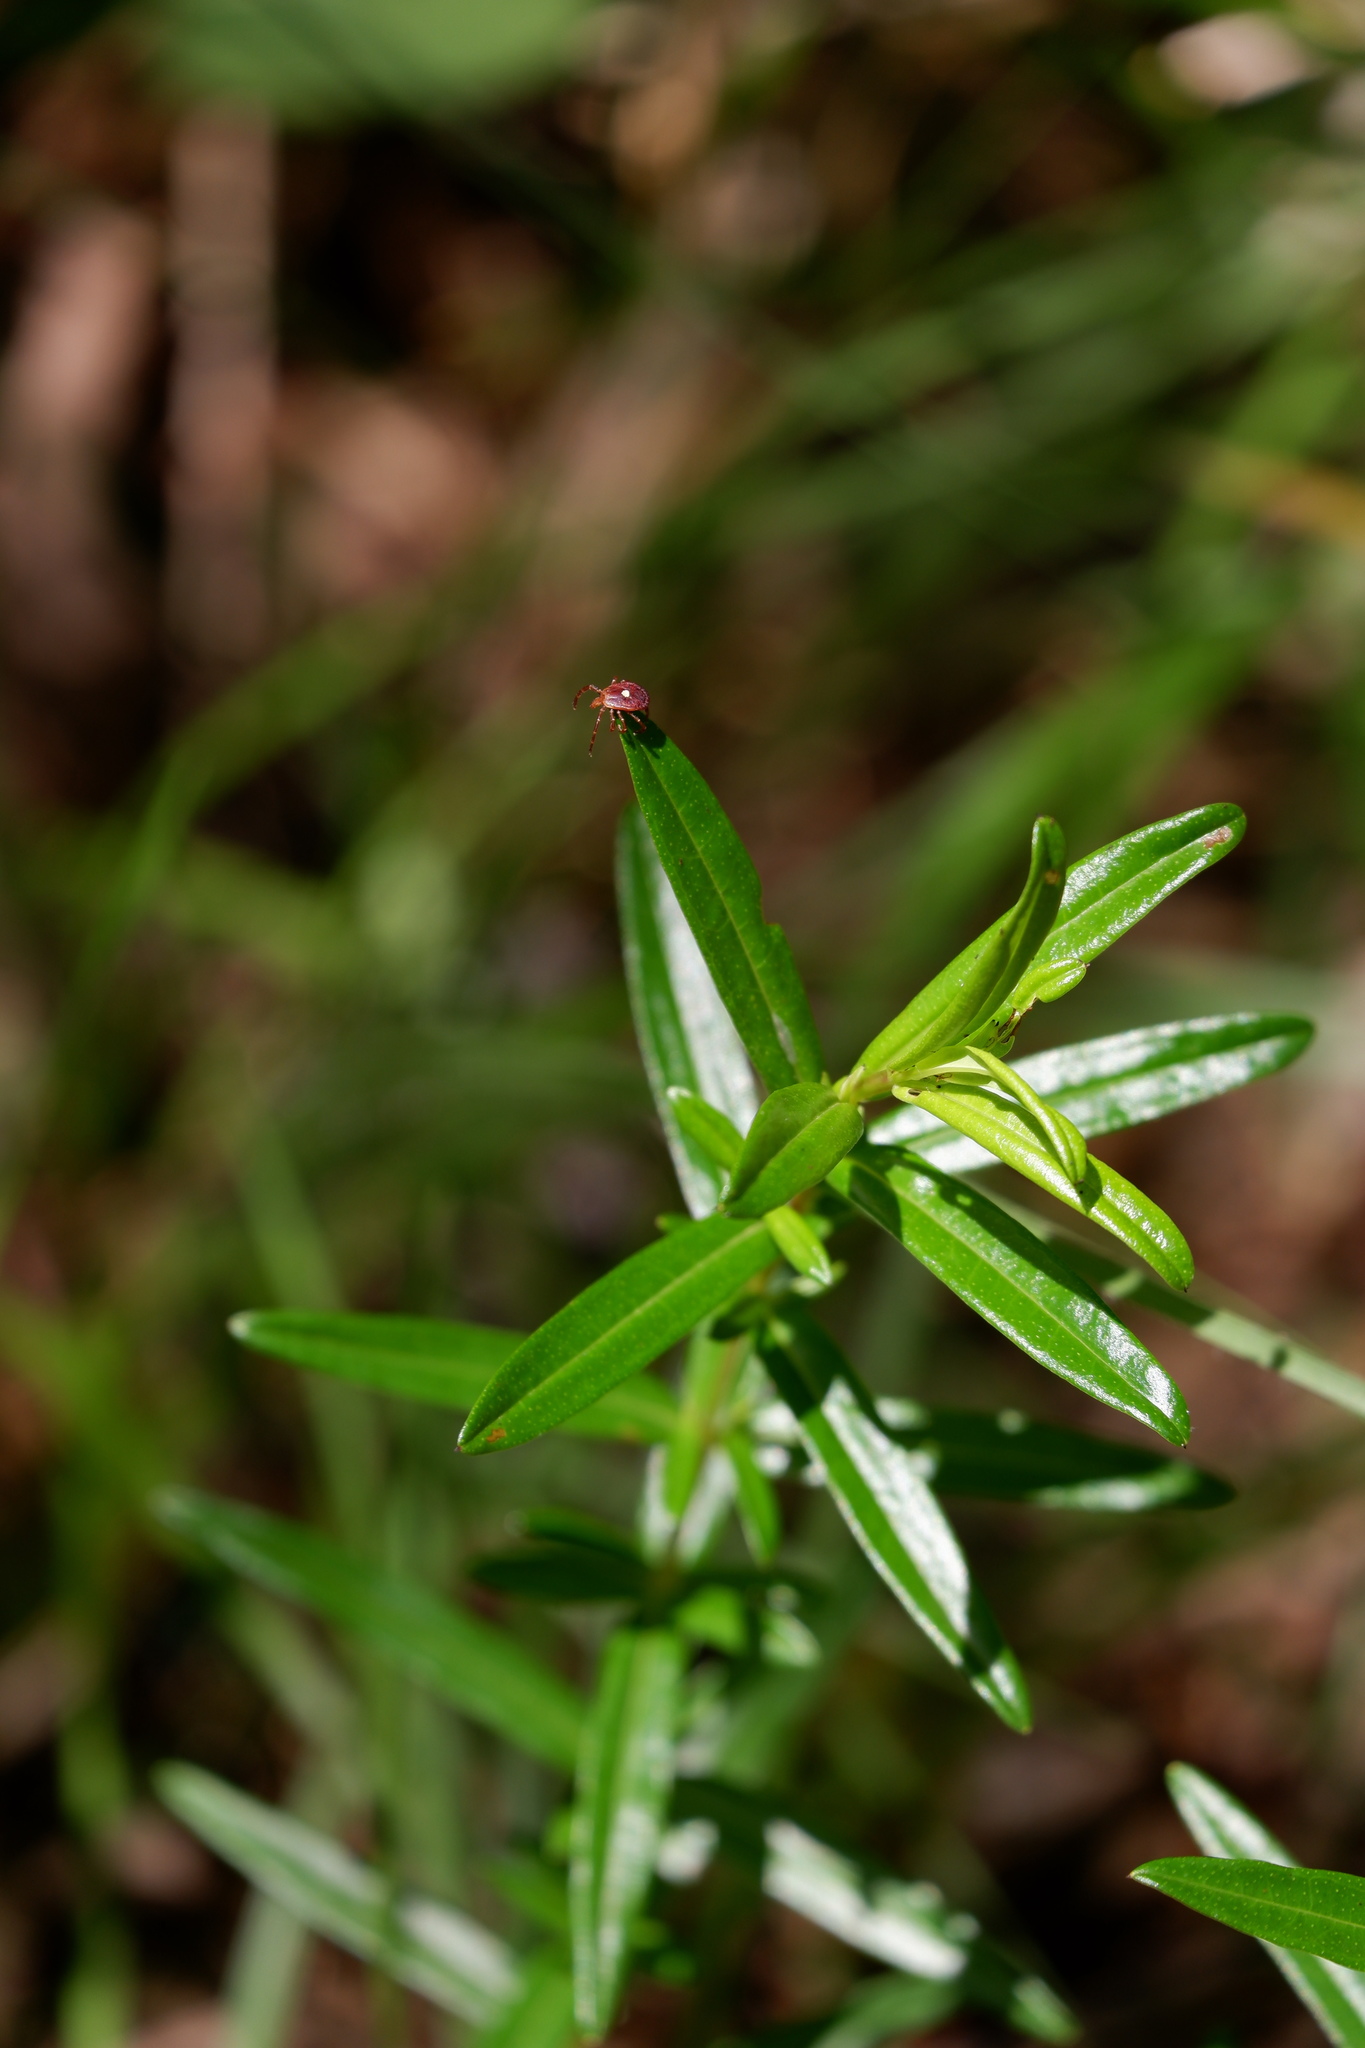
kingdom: Animalia
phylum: Arthropoda
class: Arachnida
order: Ixodida
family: Ixodidae
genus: Amblyomma
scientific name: Amblyomma americanum
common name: Lone star tick
